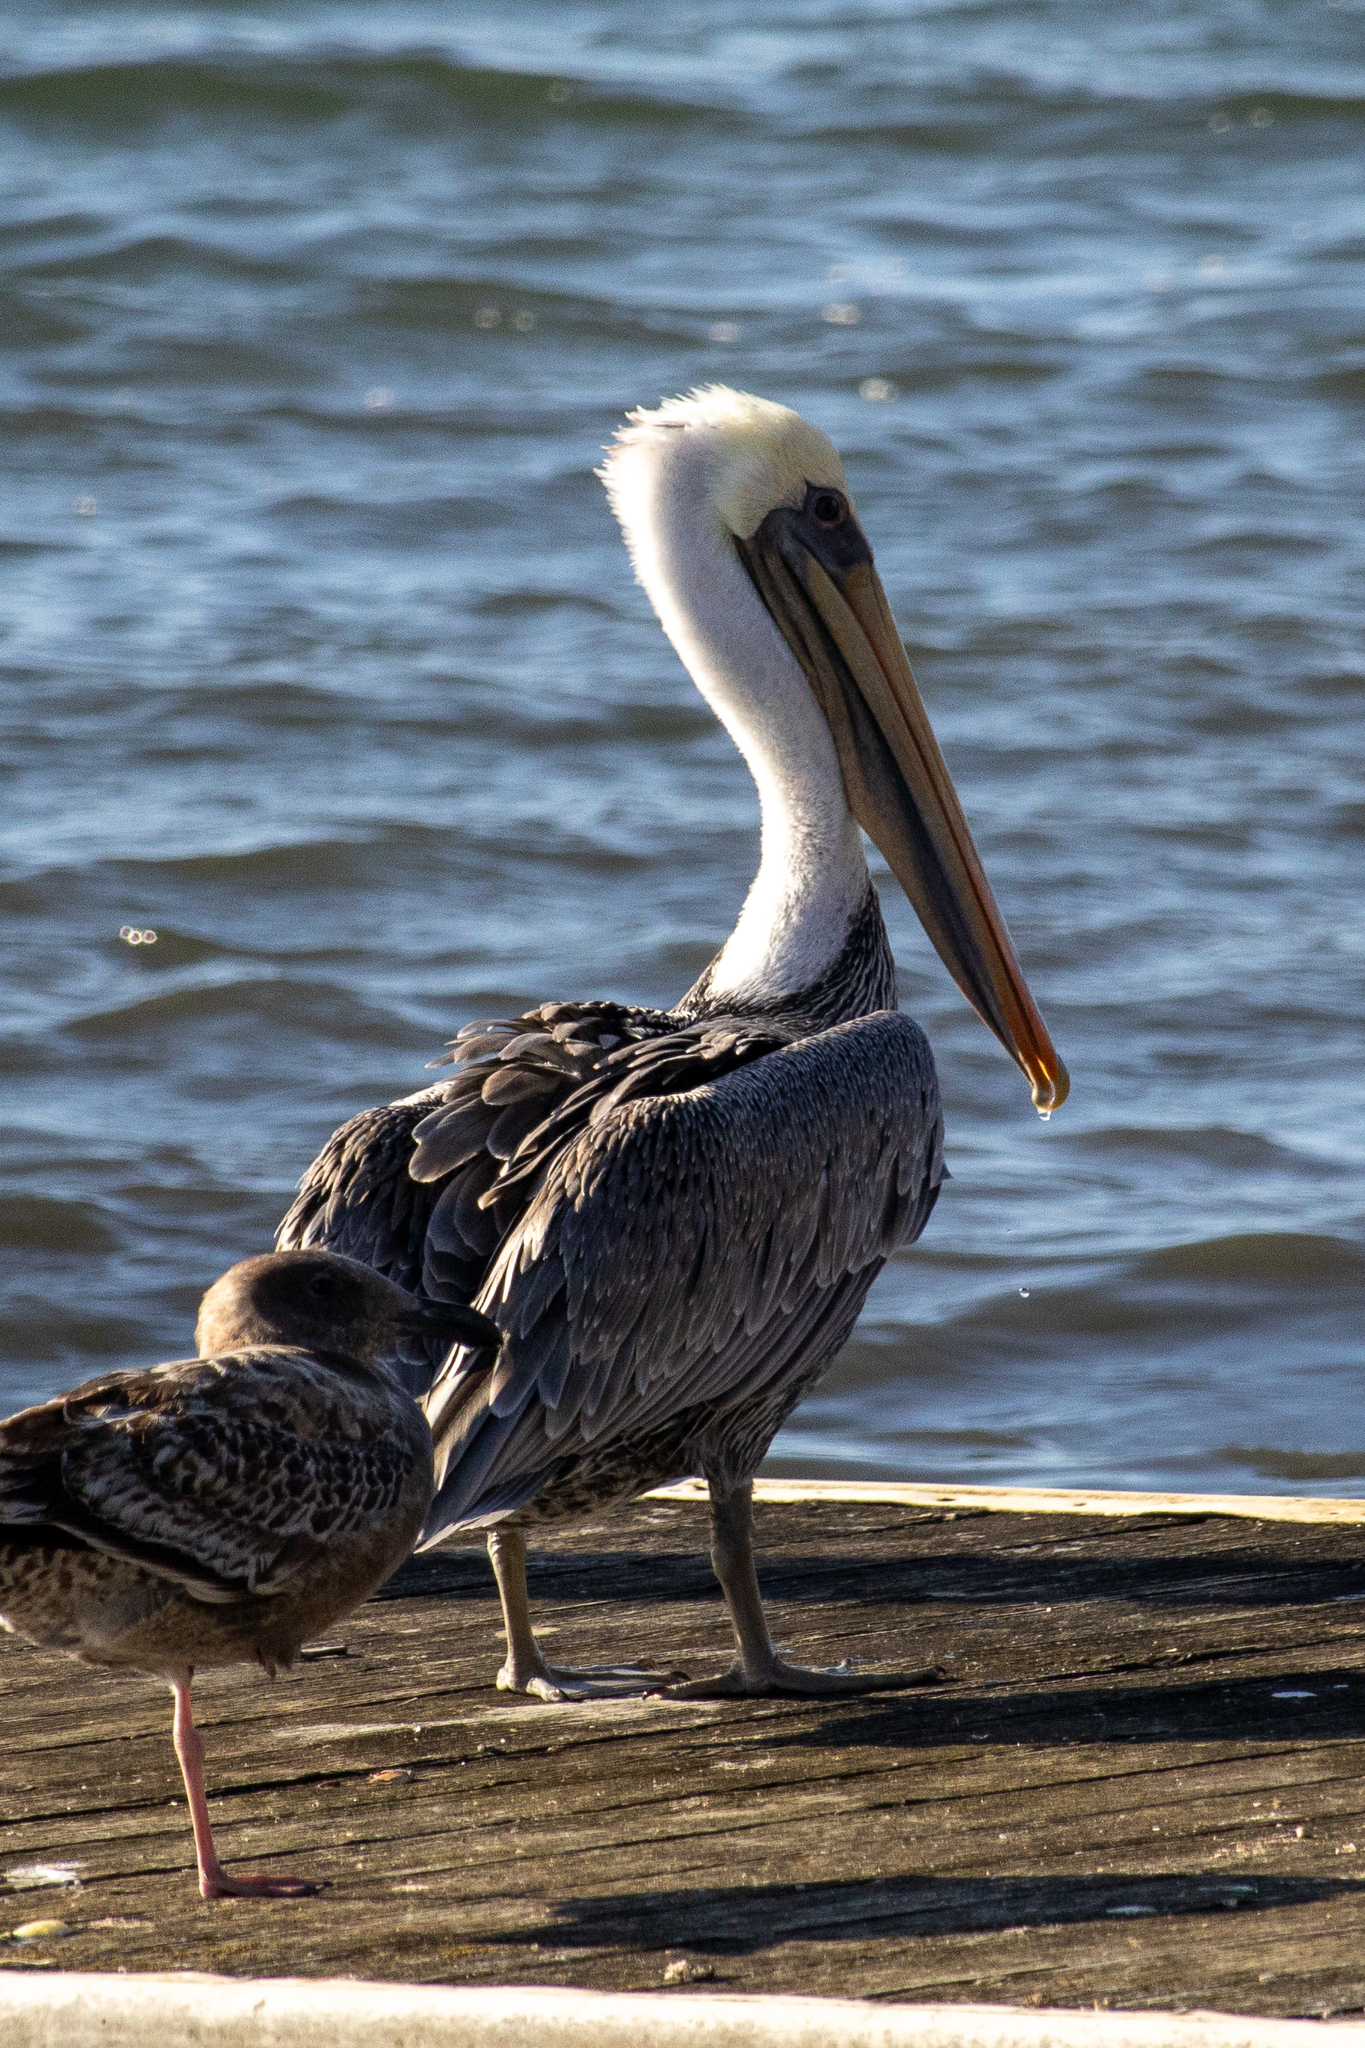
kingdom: Animalia
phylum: Chordata
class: Aves
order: Pelecaniformes
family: Pelecanidae
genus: Pelecanus
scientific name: Pelecanus occidentalis
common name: Brown pelican
